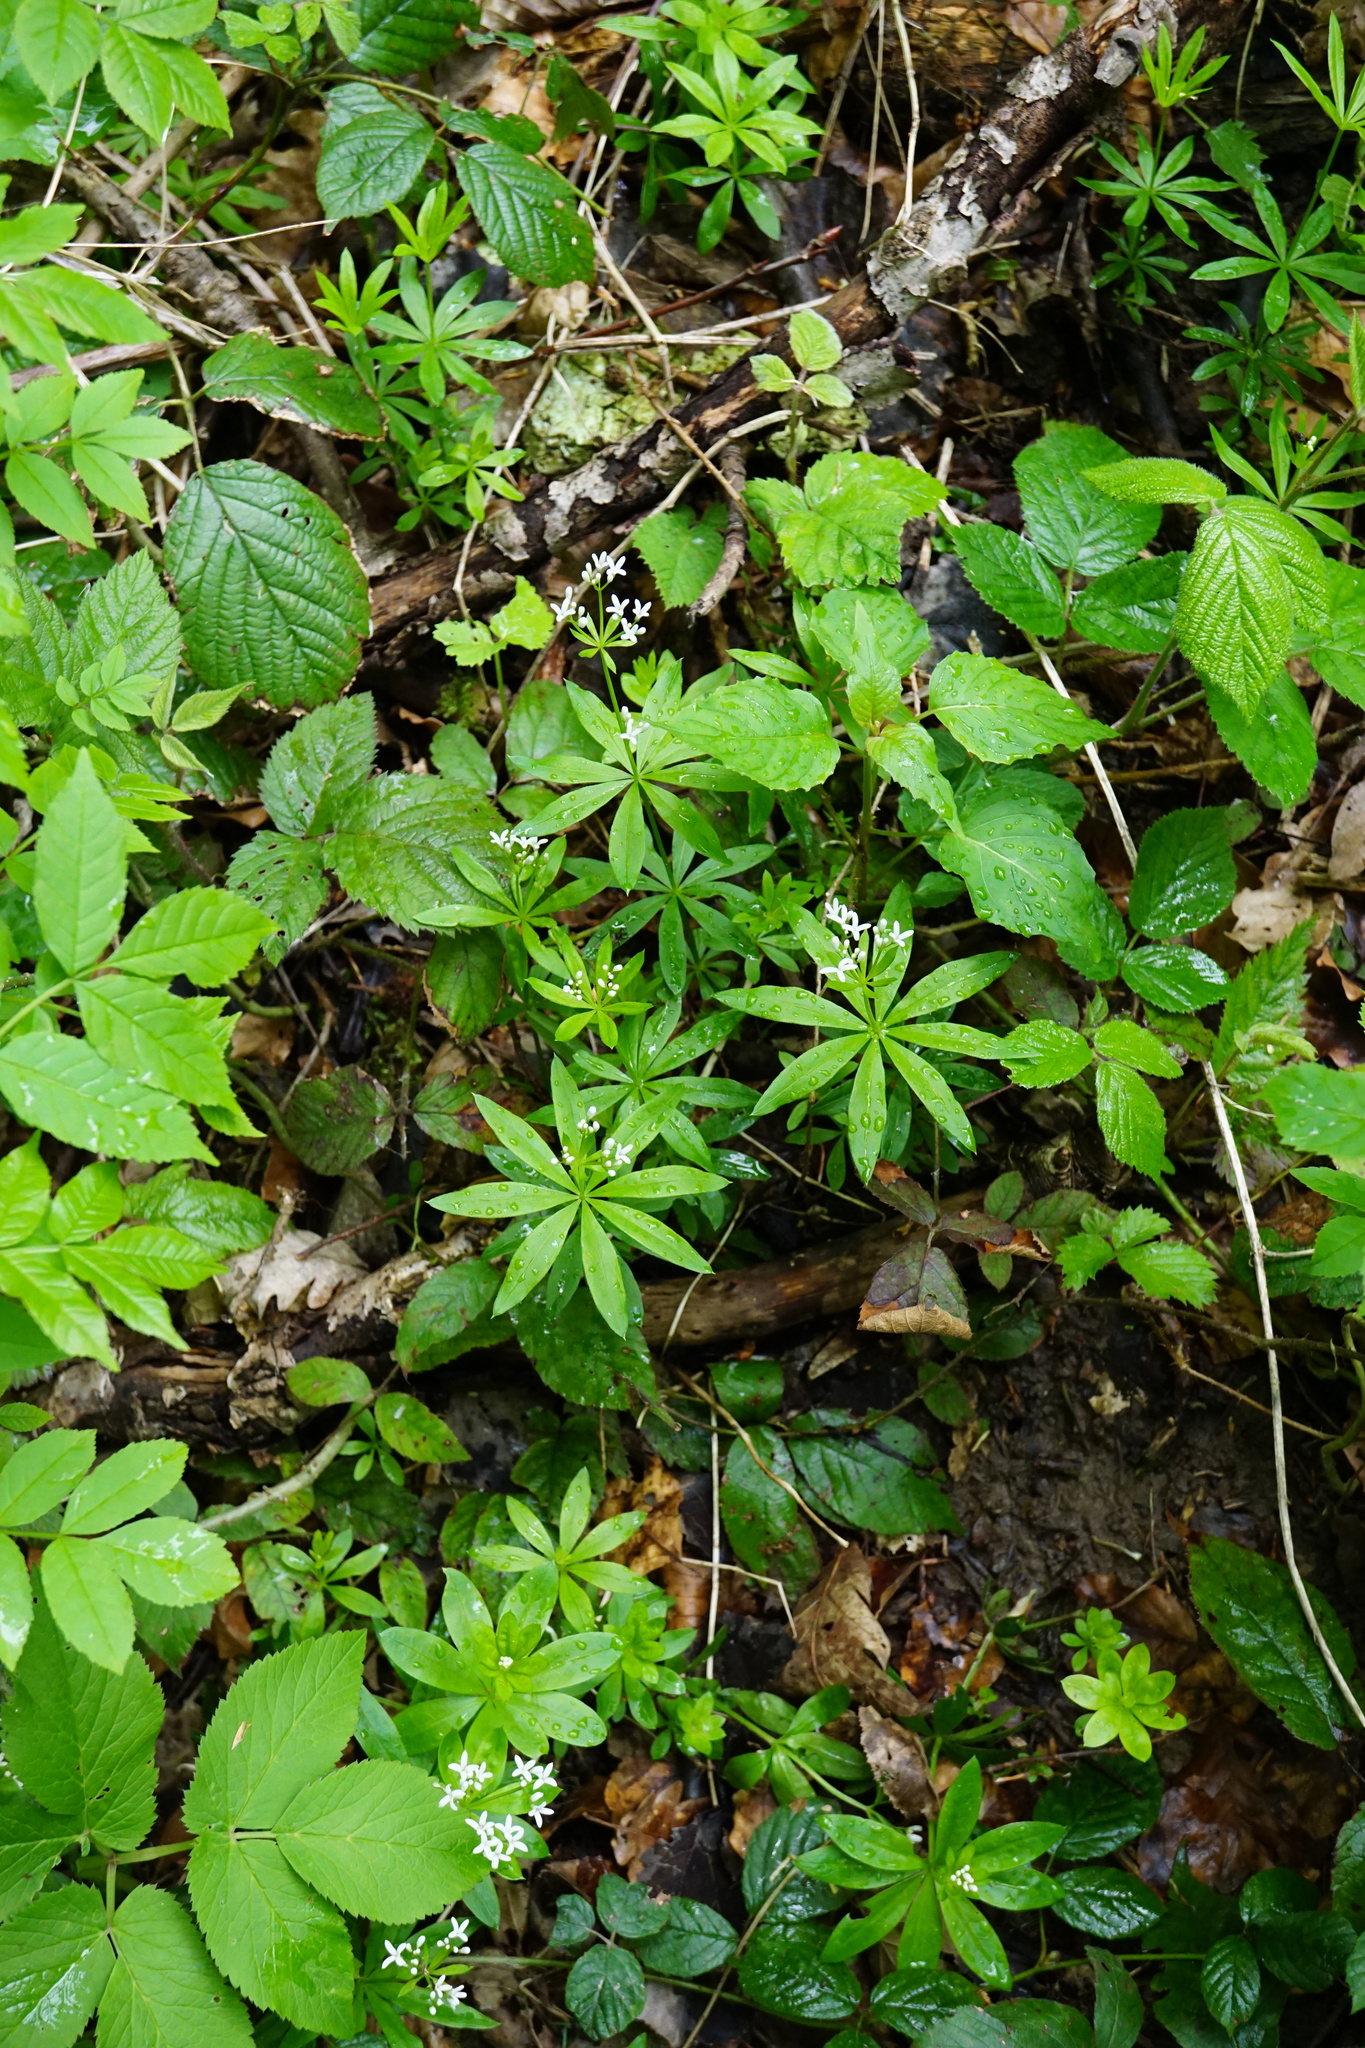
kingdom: Plantae
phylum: Tracheophyta
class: Magnoliopsida
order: Gentianales
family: Rubiaceae
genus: Galium
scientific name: Galium odoratum
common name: Sweet woodruff
